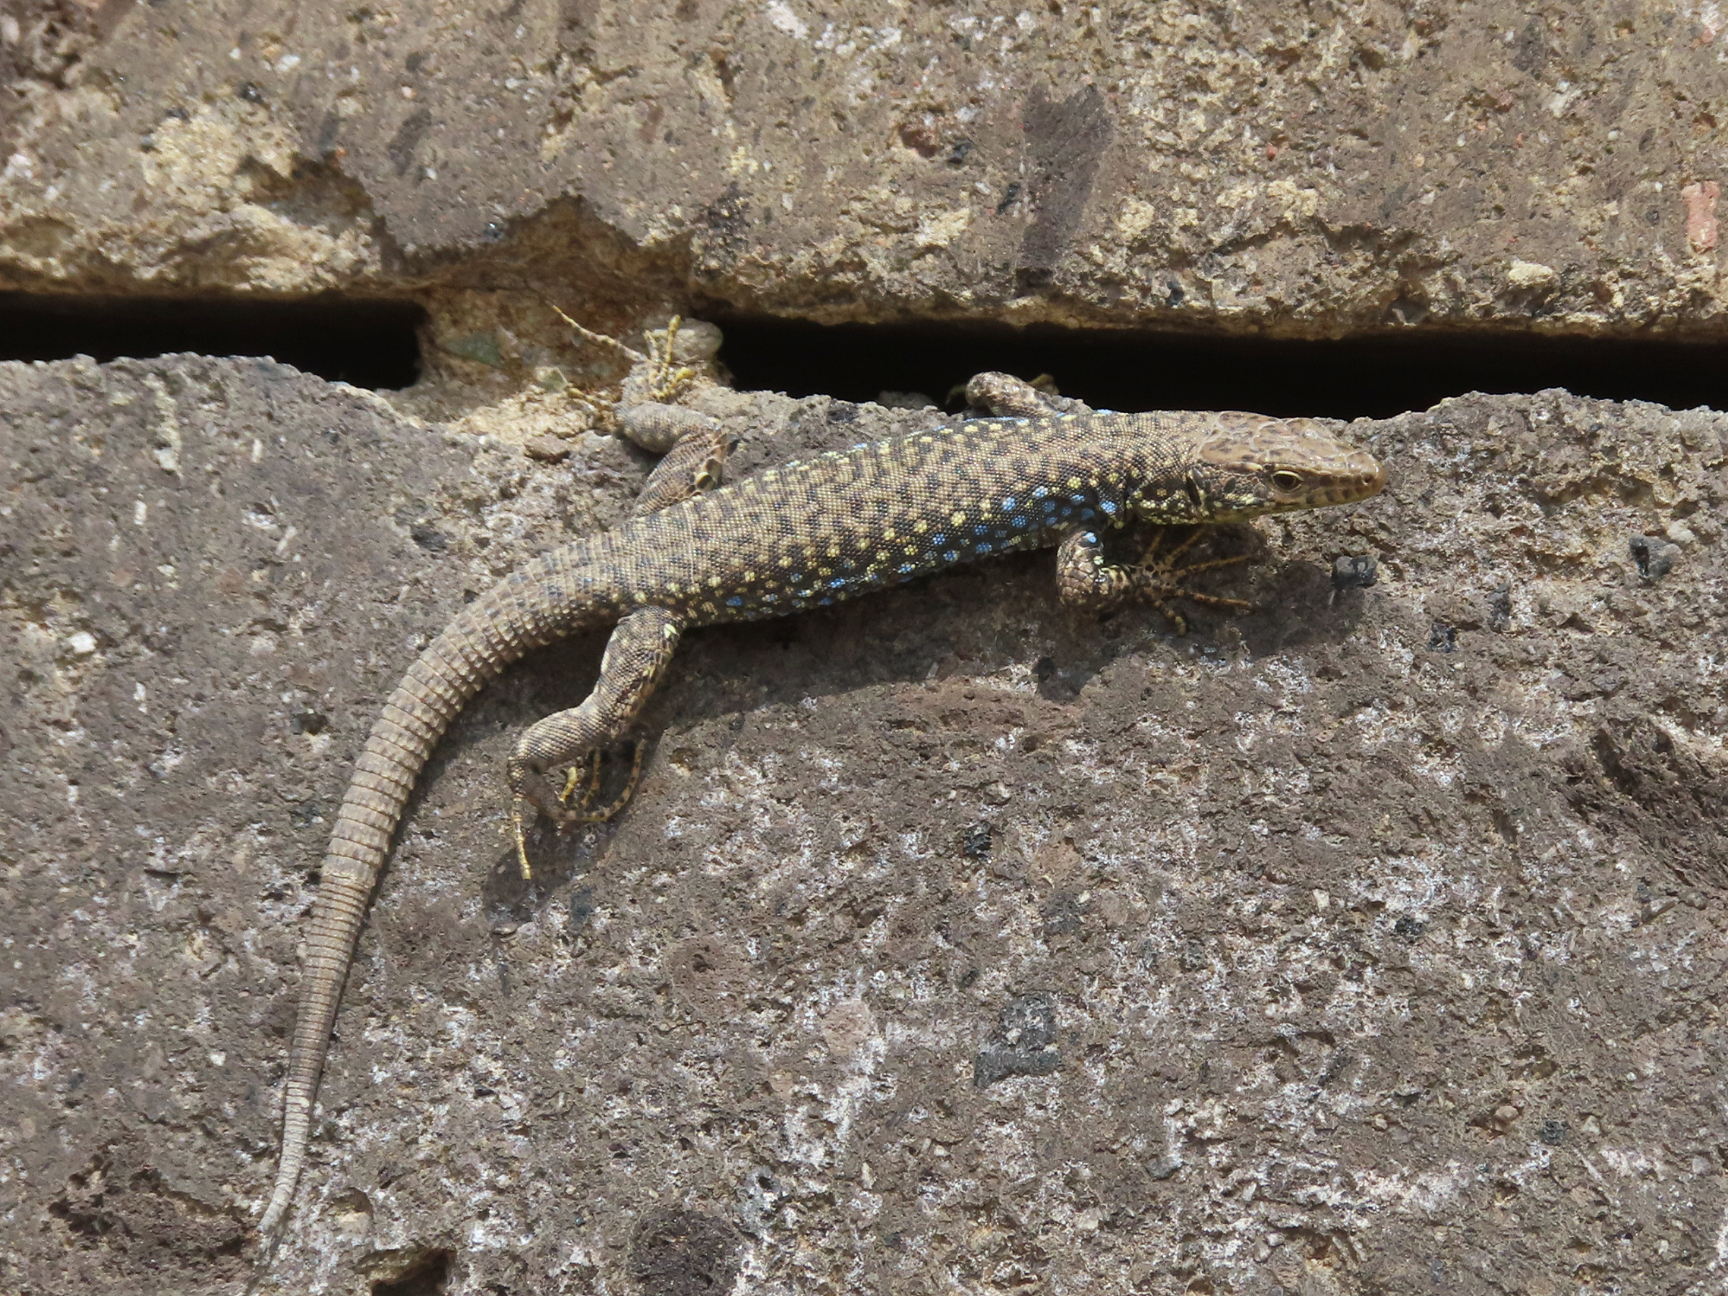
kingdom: Animalia
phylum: Chordata
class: Squamata
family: Lacertidae
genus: Darevskia
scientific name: Darevskia
